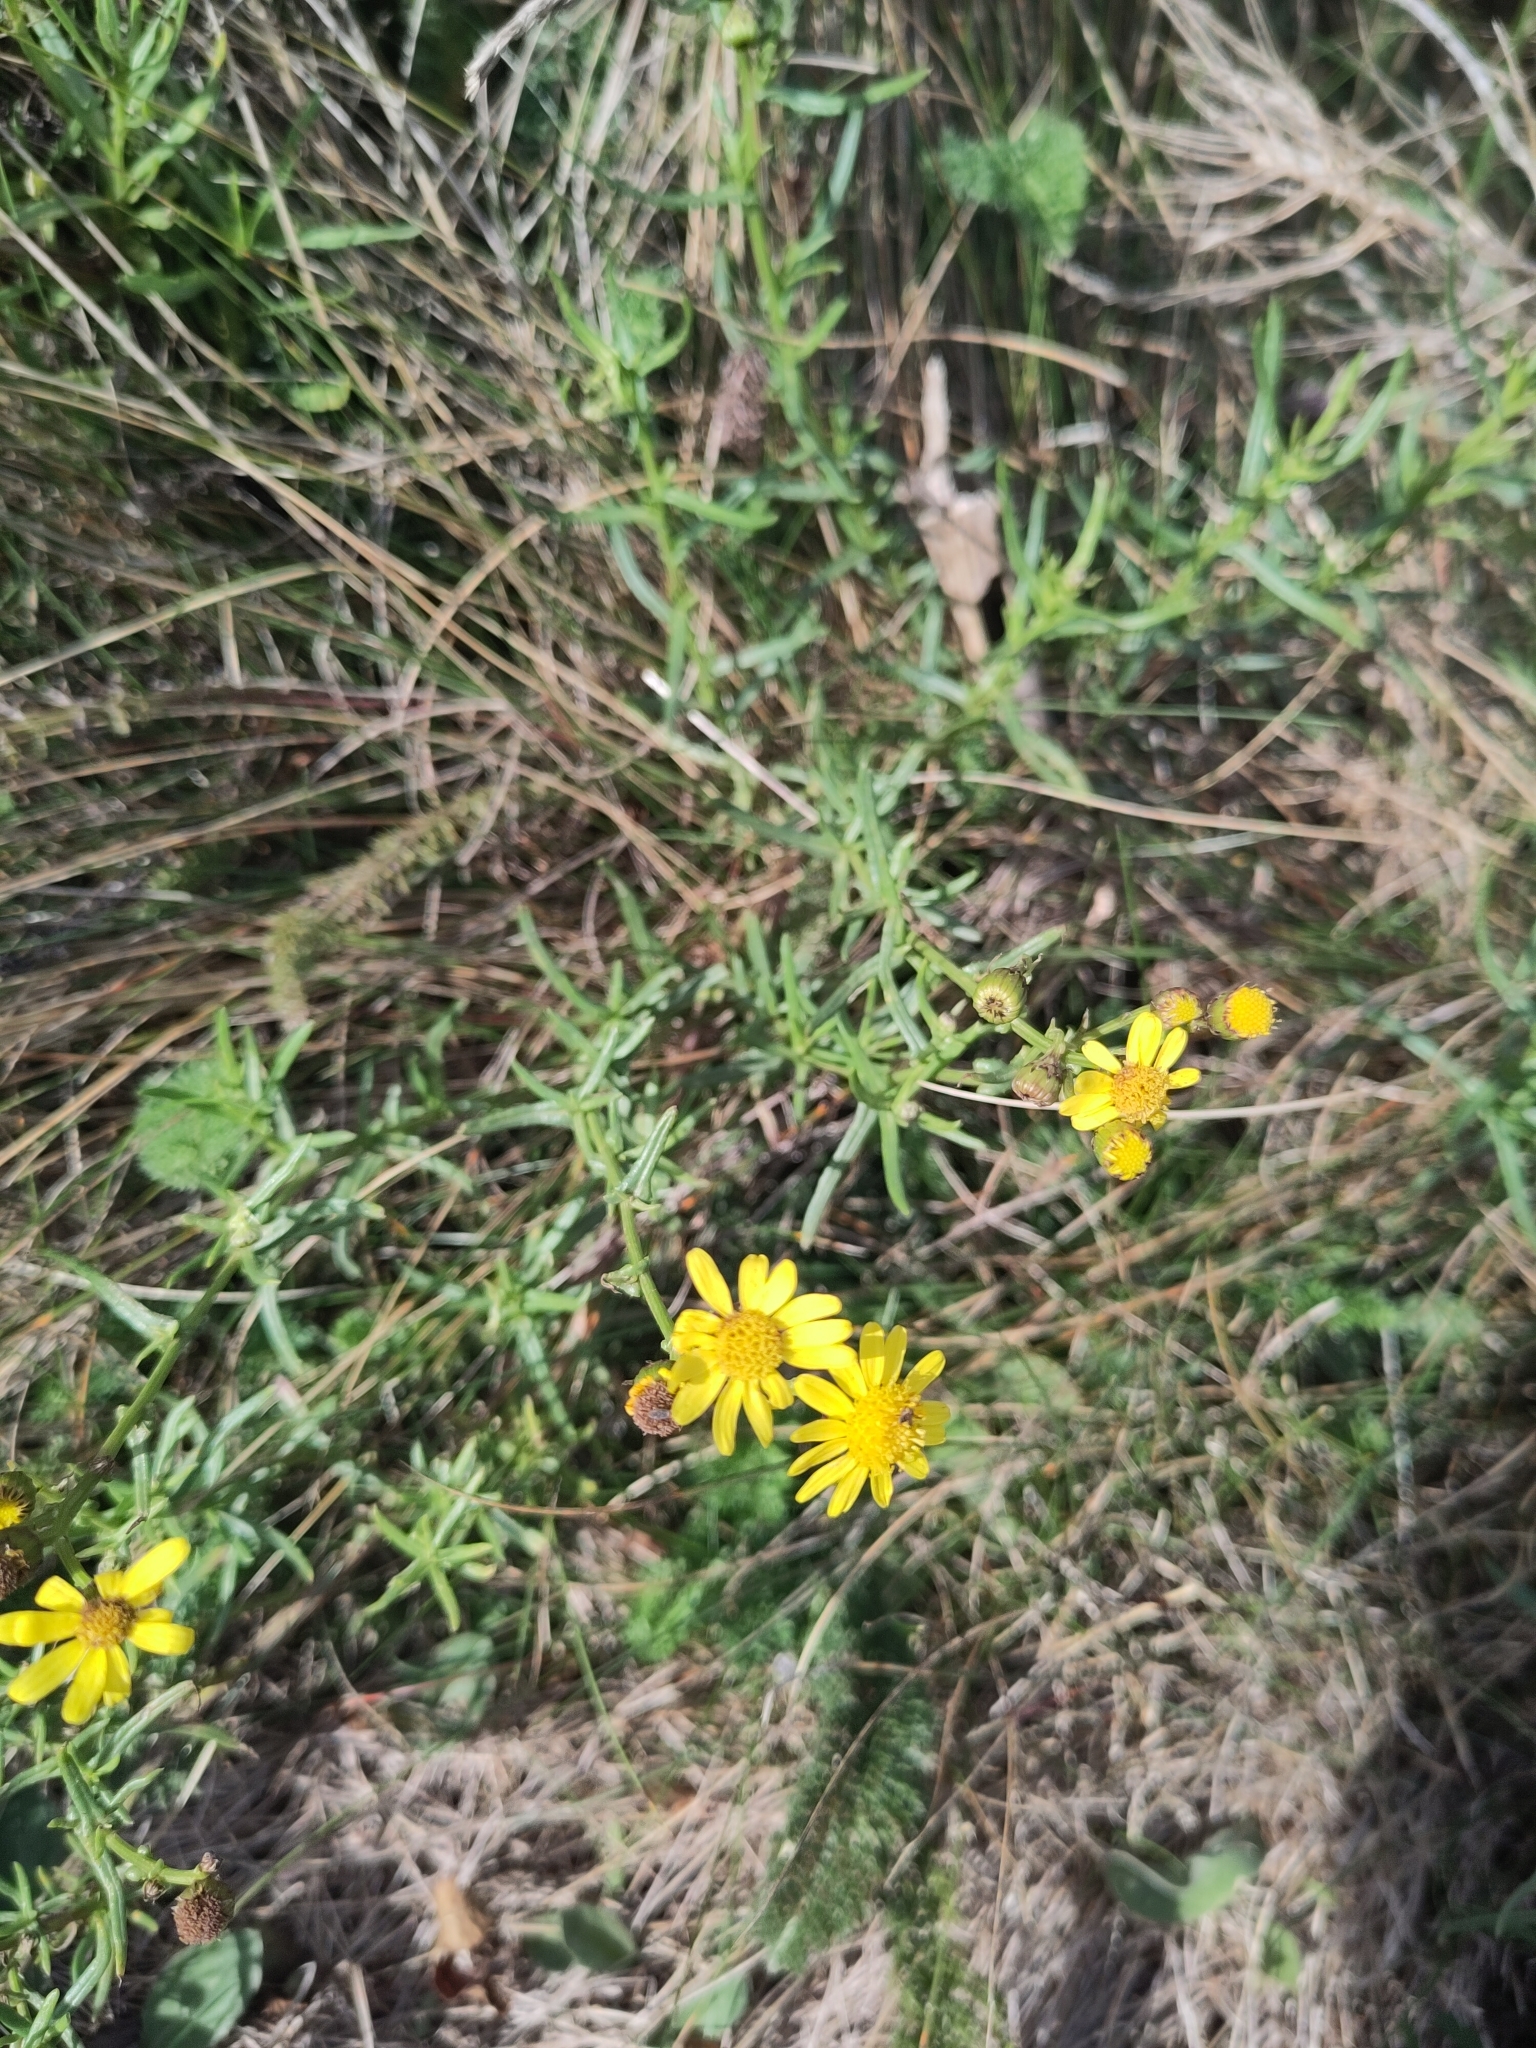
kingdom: Plantae
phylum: Tracheophyta
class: Magnoliopsida
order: Asterales
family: Asteraceae
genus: Senecio
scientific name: Senecio inaequidens
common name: Narrow-leaved ragwort
